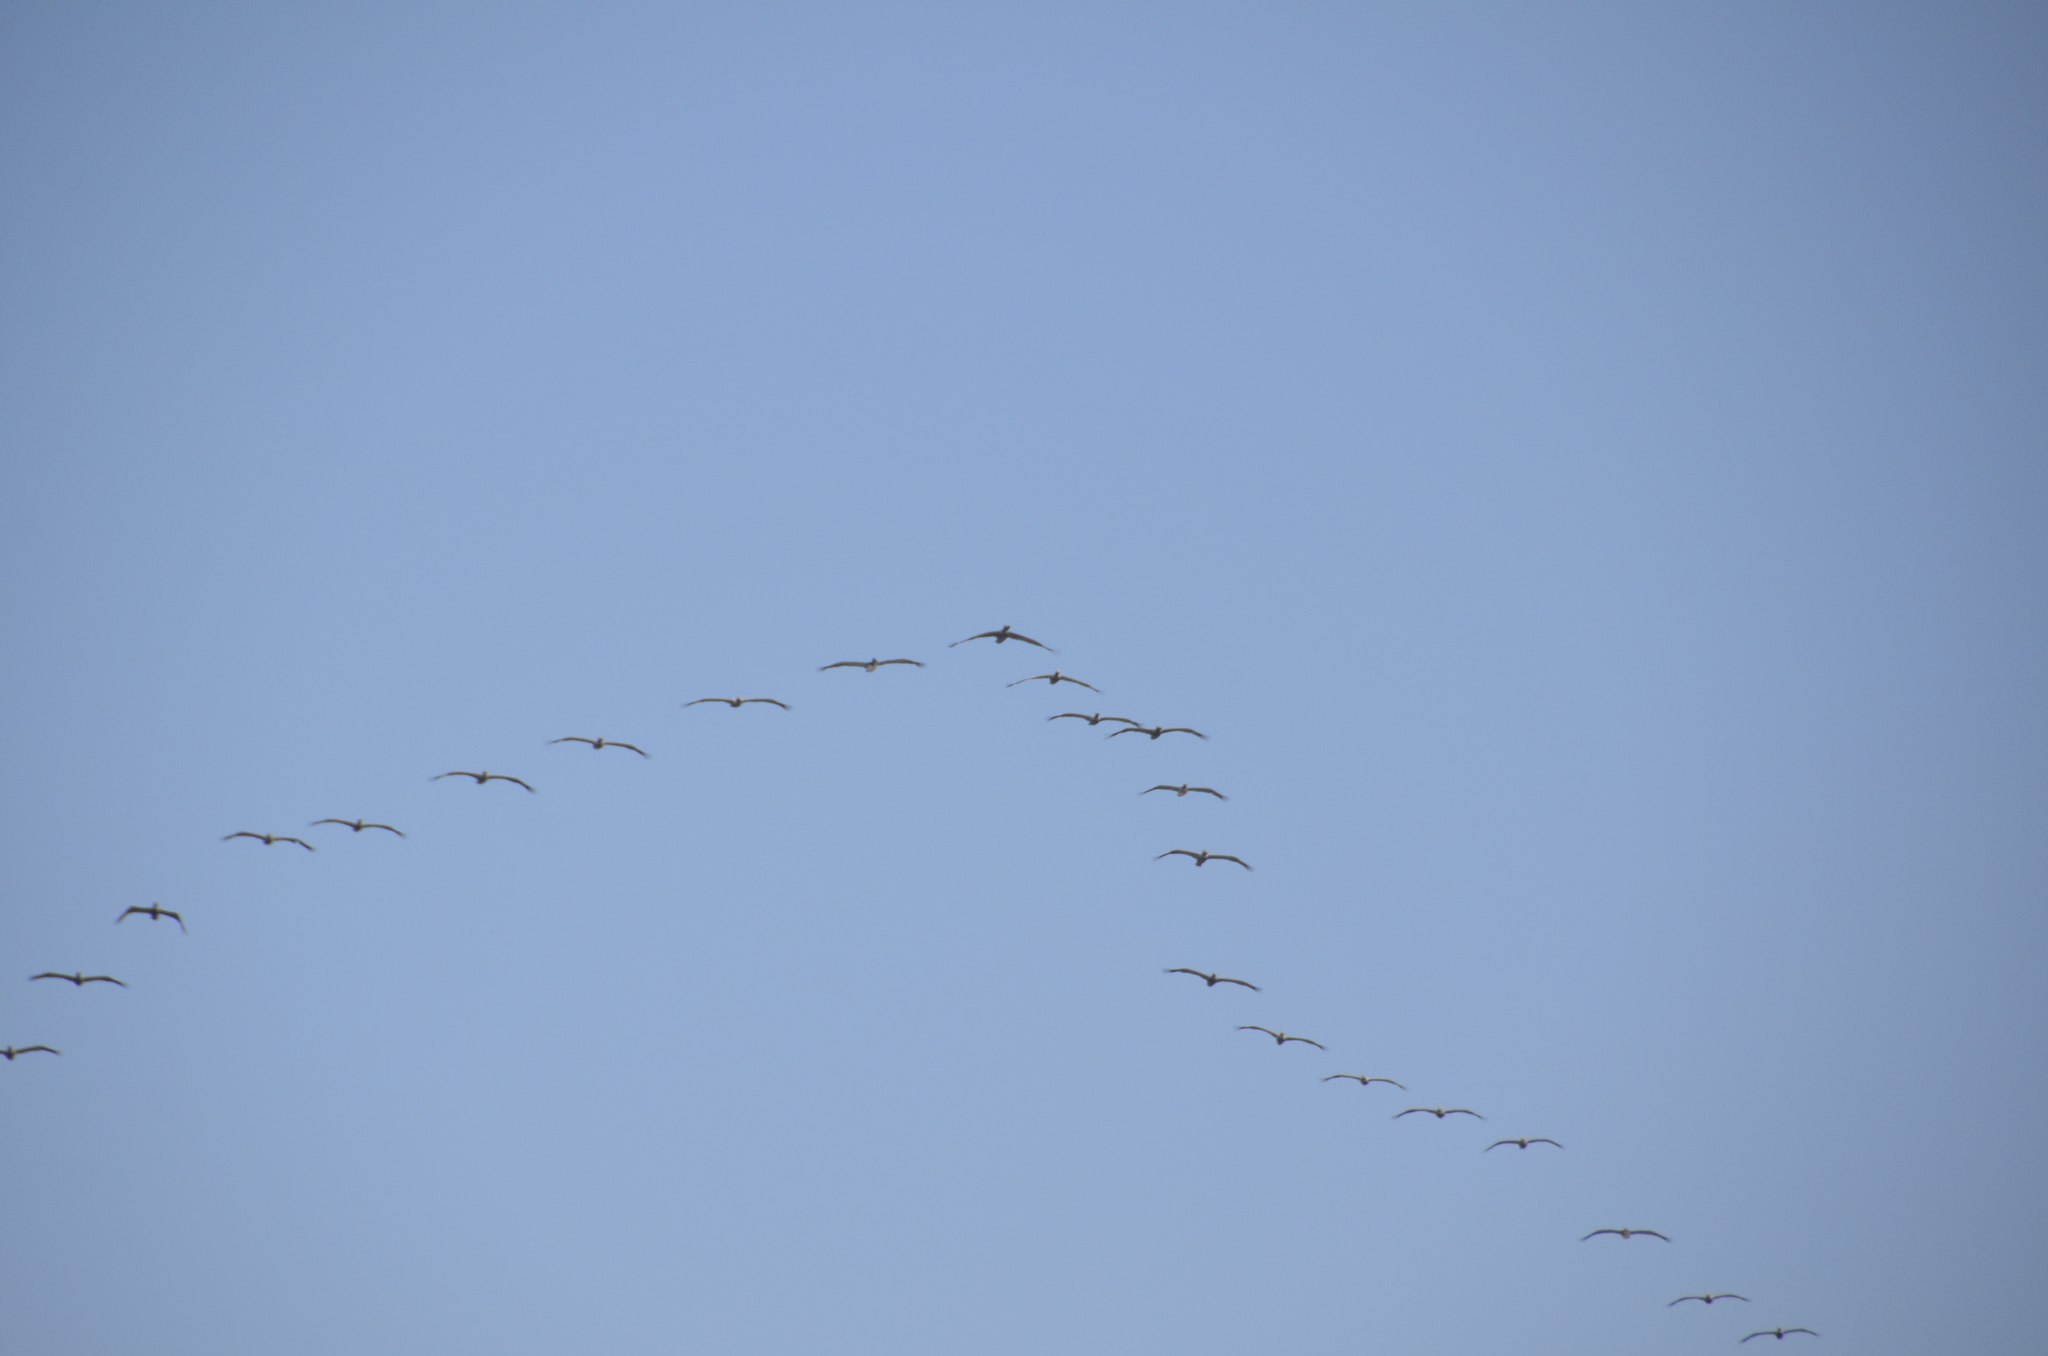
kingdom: Animalia
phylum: Chordata
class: Aves
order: Pelecaniformes
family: Pelecanidae
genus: Pelecanus
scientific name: Pelecanus occidentalis
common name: Brown pelican
